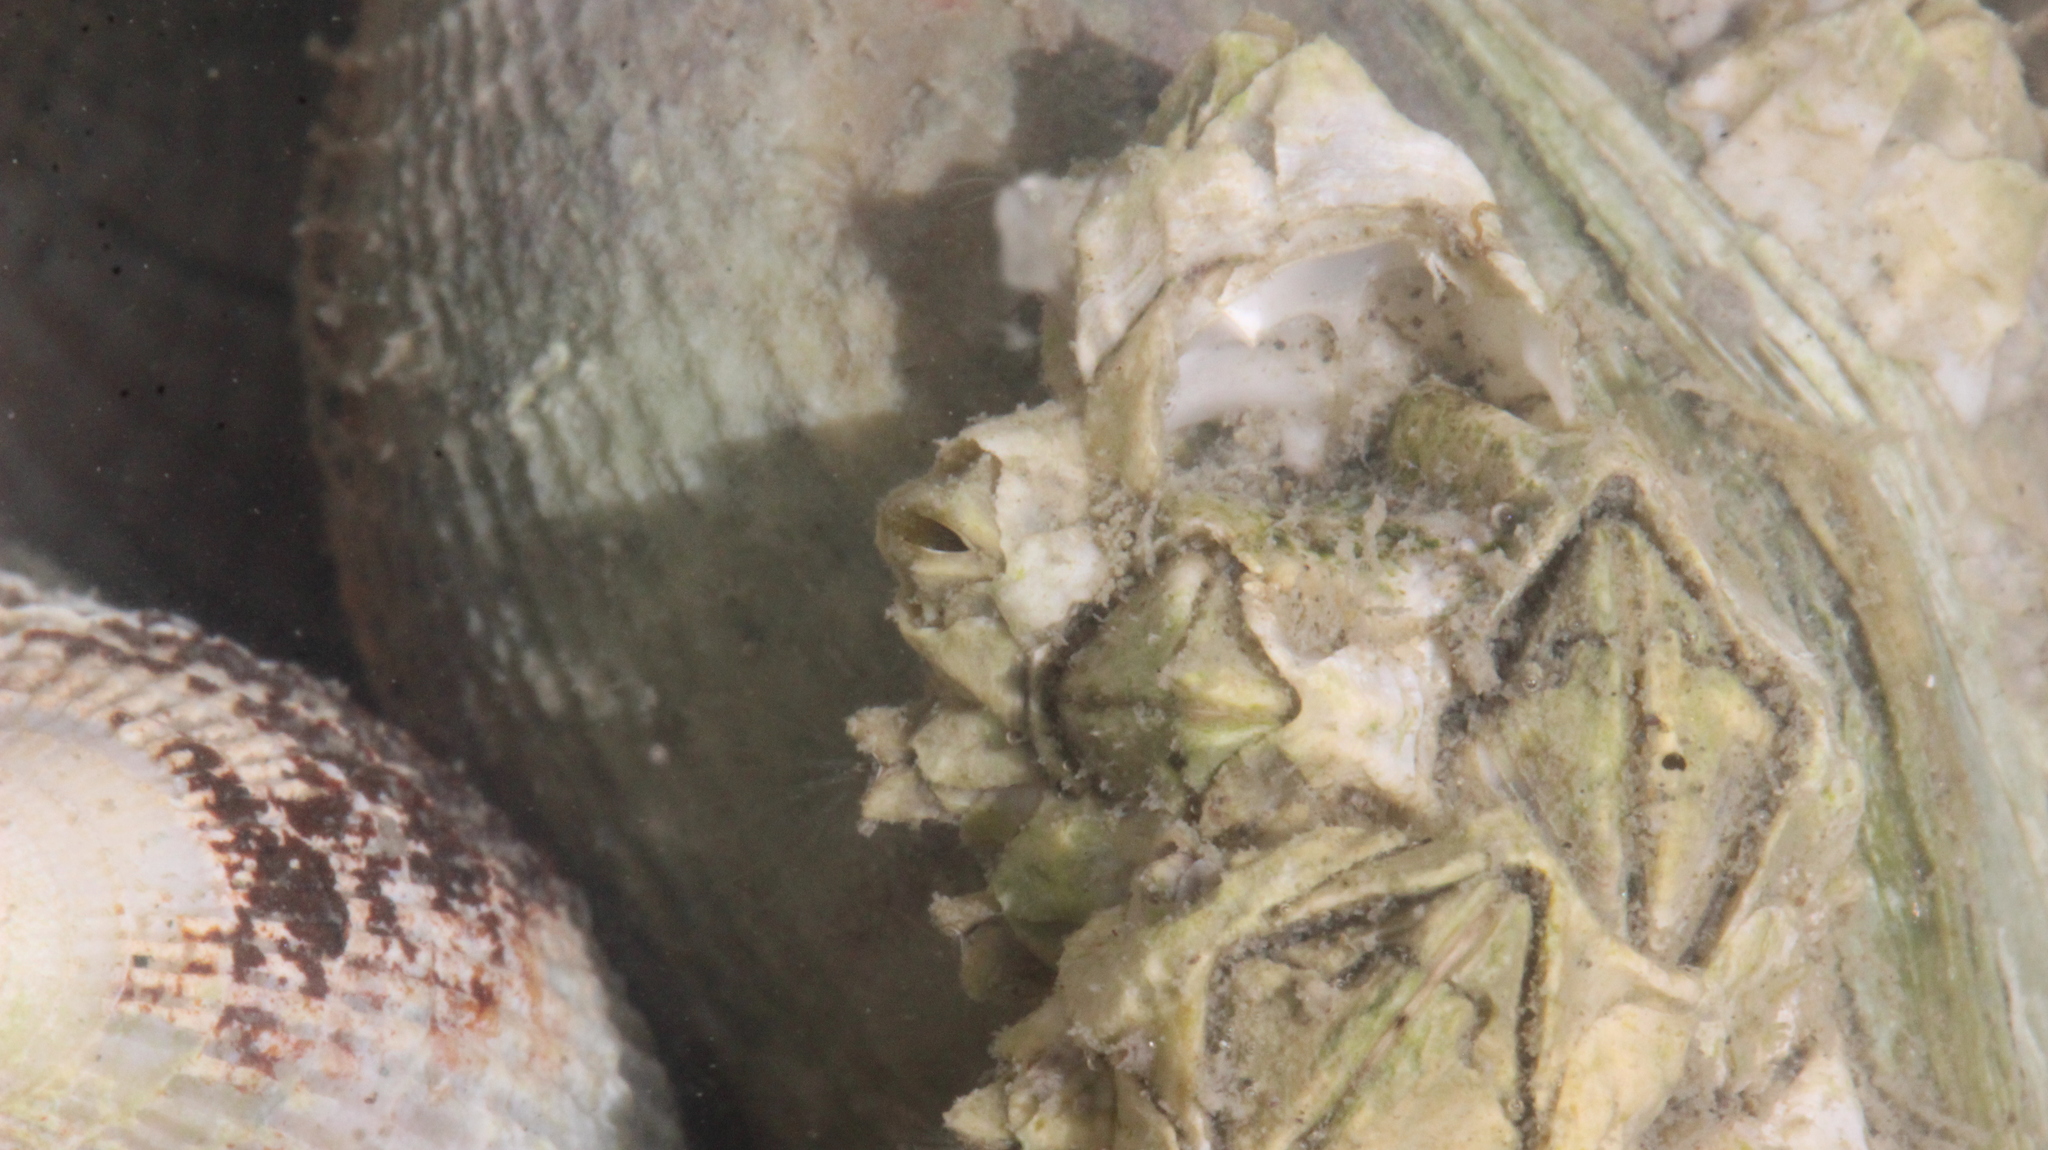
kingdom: Animalia
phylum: Arthropoda
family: Elminiidae
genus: Austrominius
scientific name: Austrominius modestus
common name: Australasian barnacle
